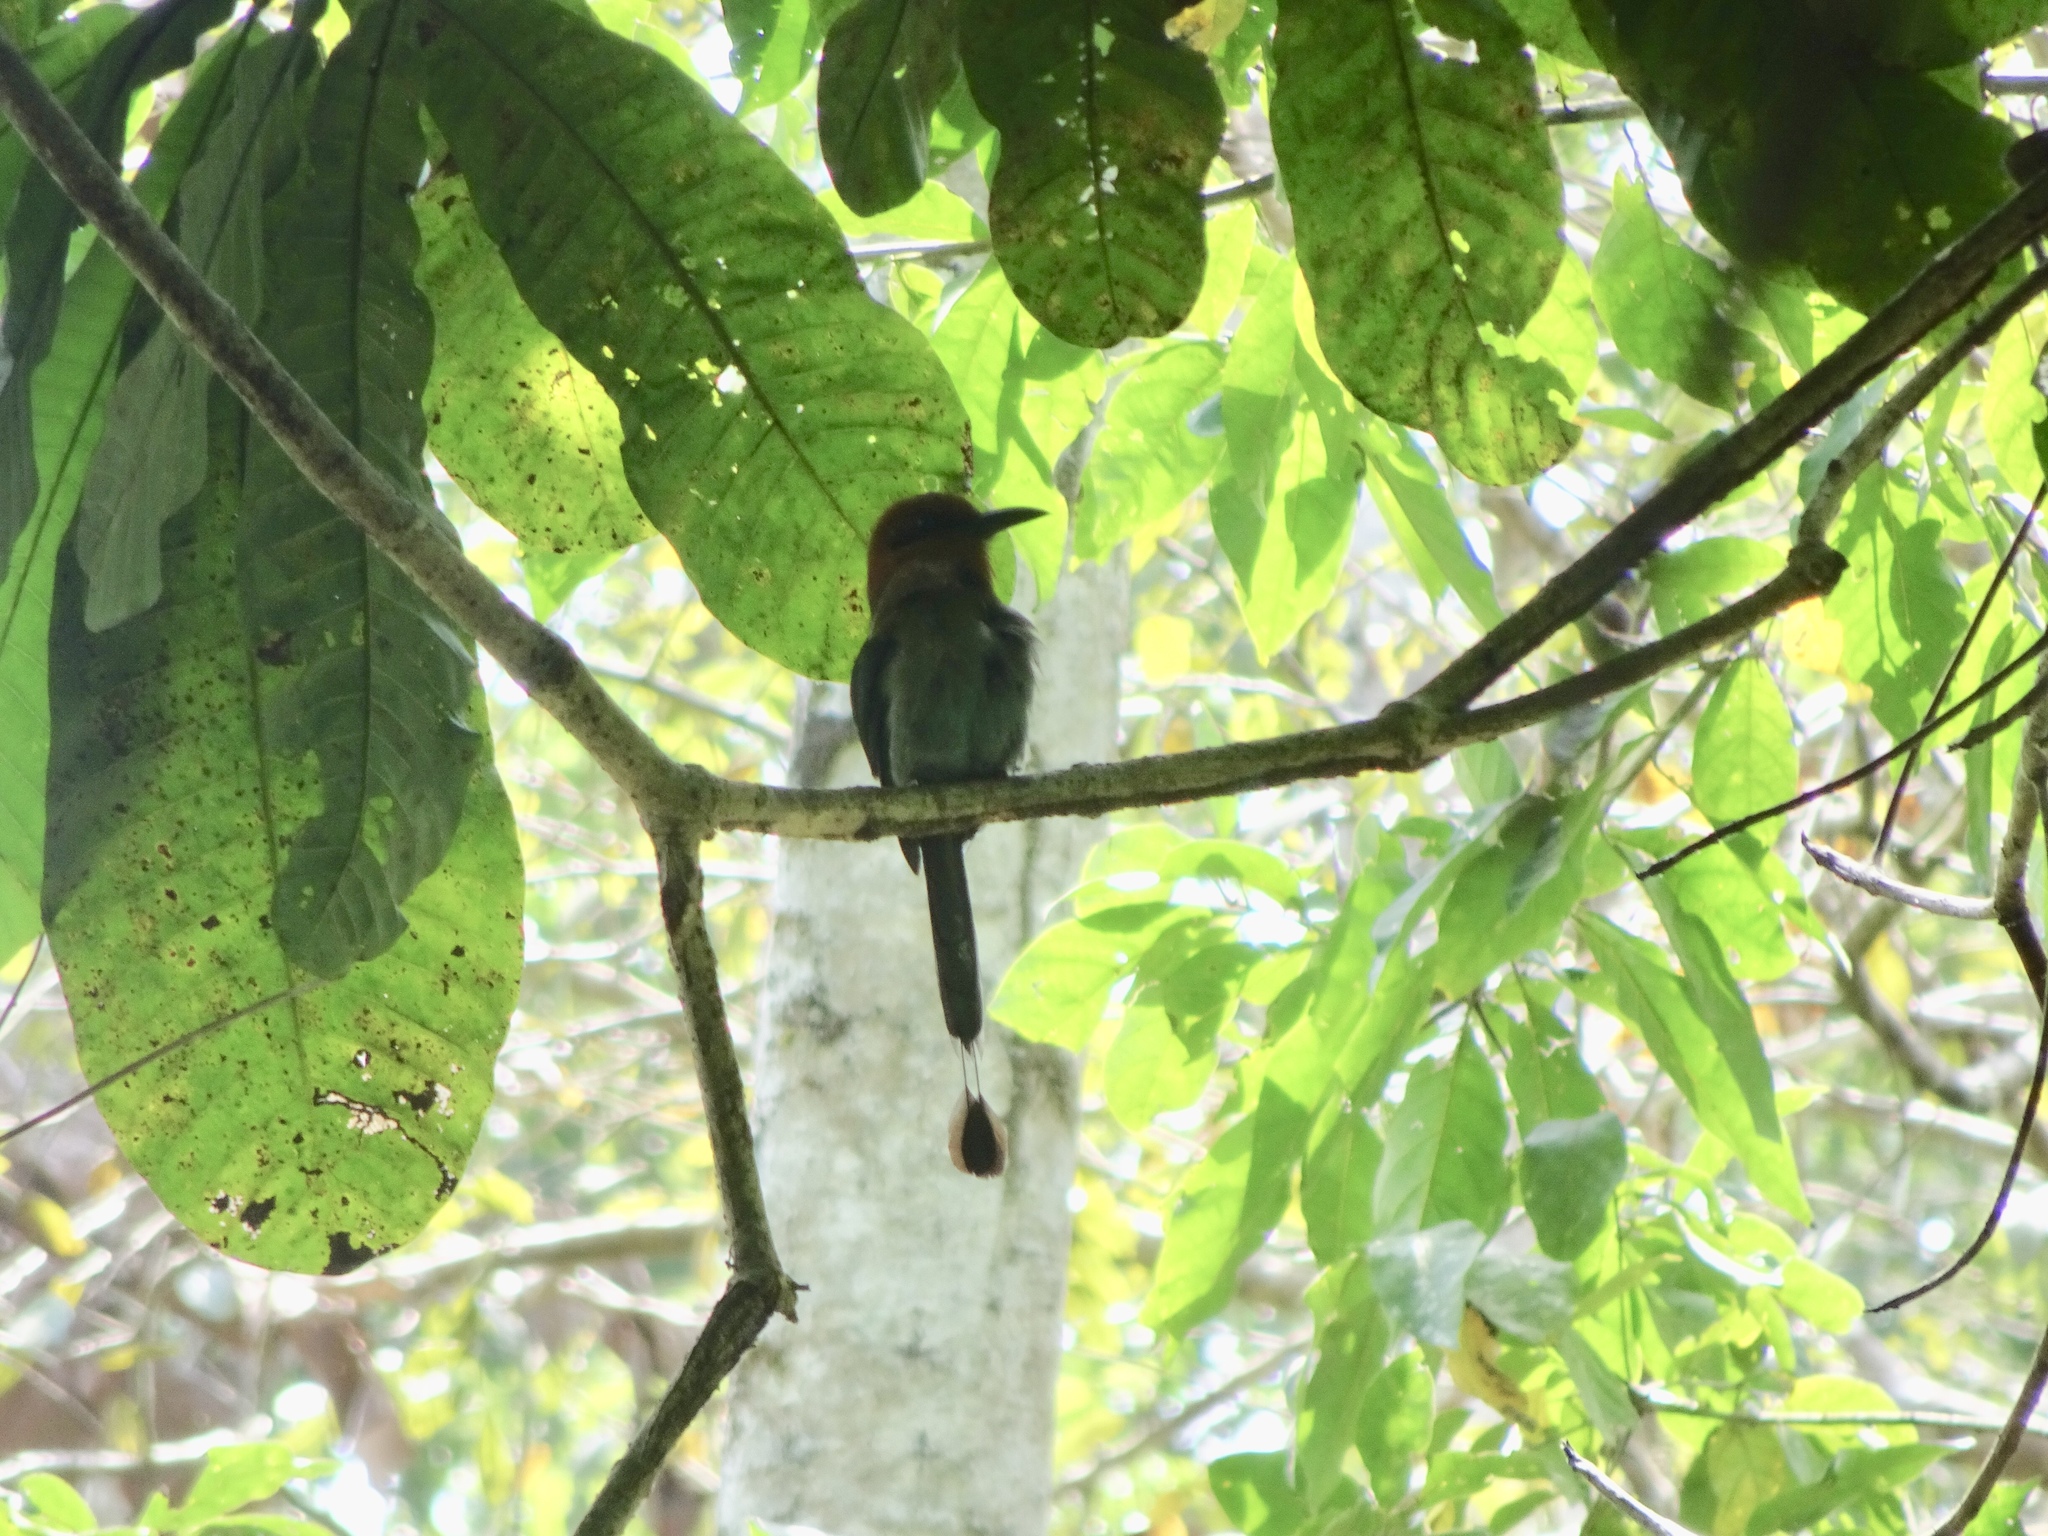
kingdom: Animalia
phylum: Chordata
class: Aves
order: Coraciiformes
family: Momotidae
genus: Electron
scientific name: Electron platyrhynchum
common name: Broad-billed motmot
